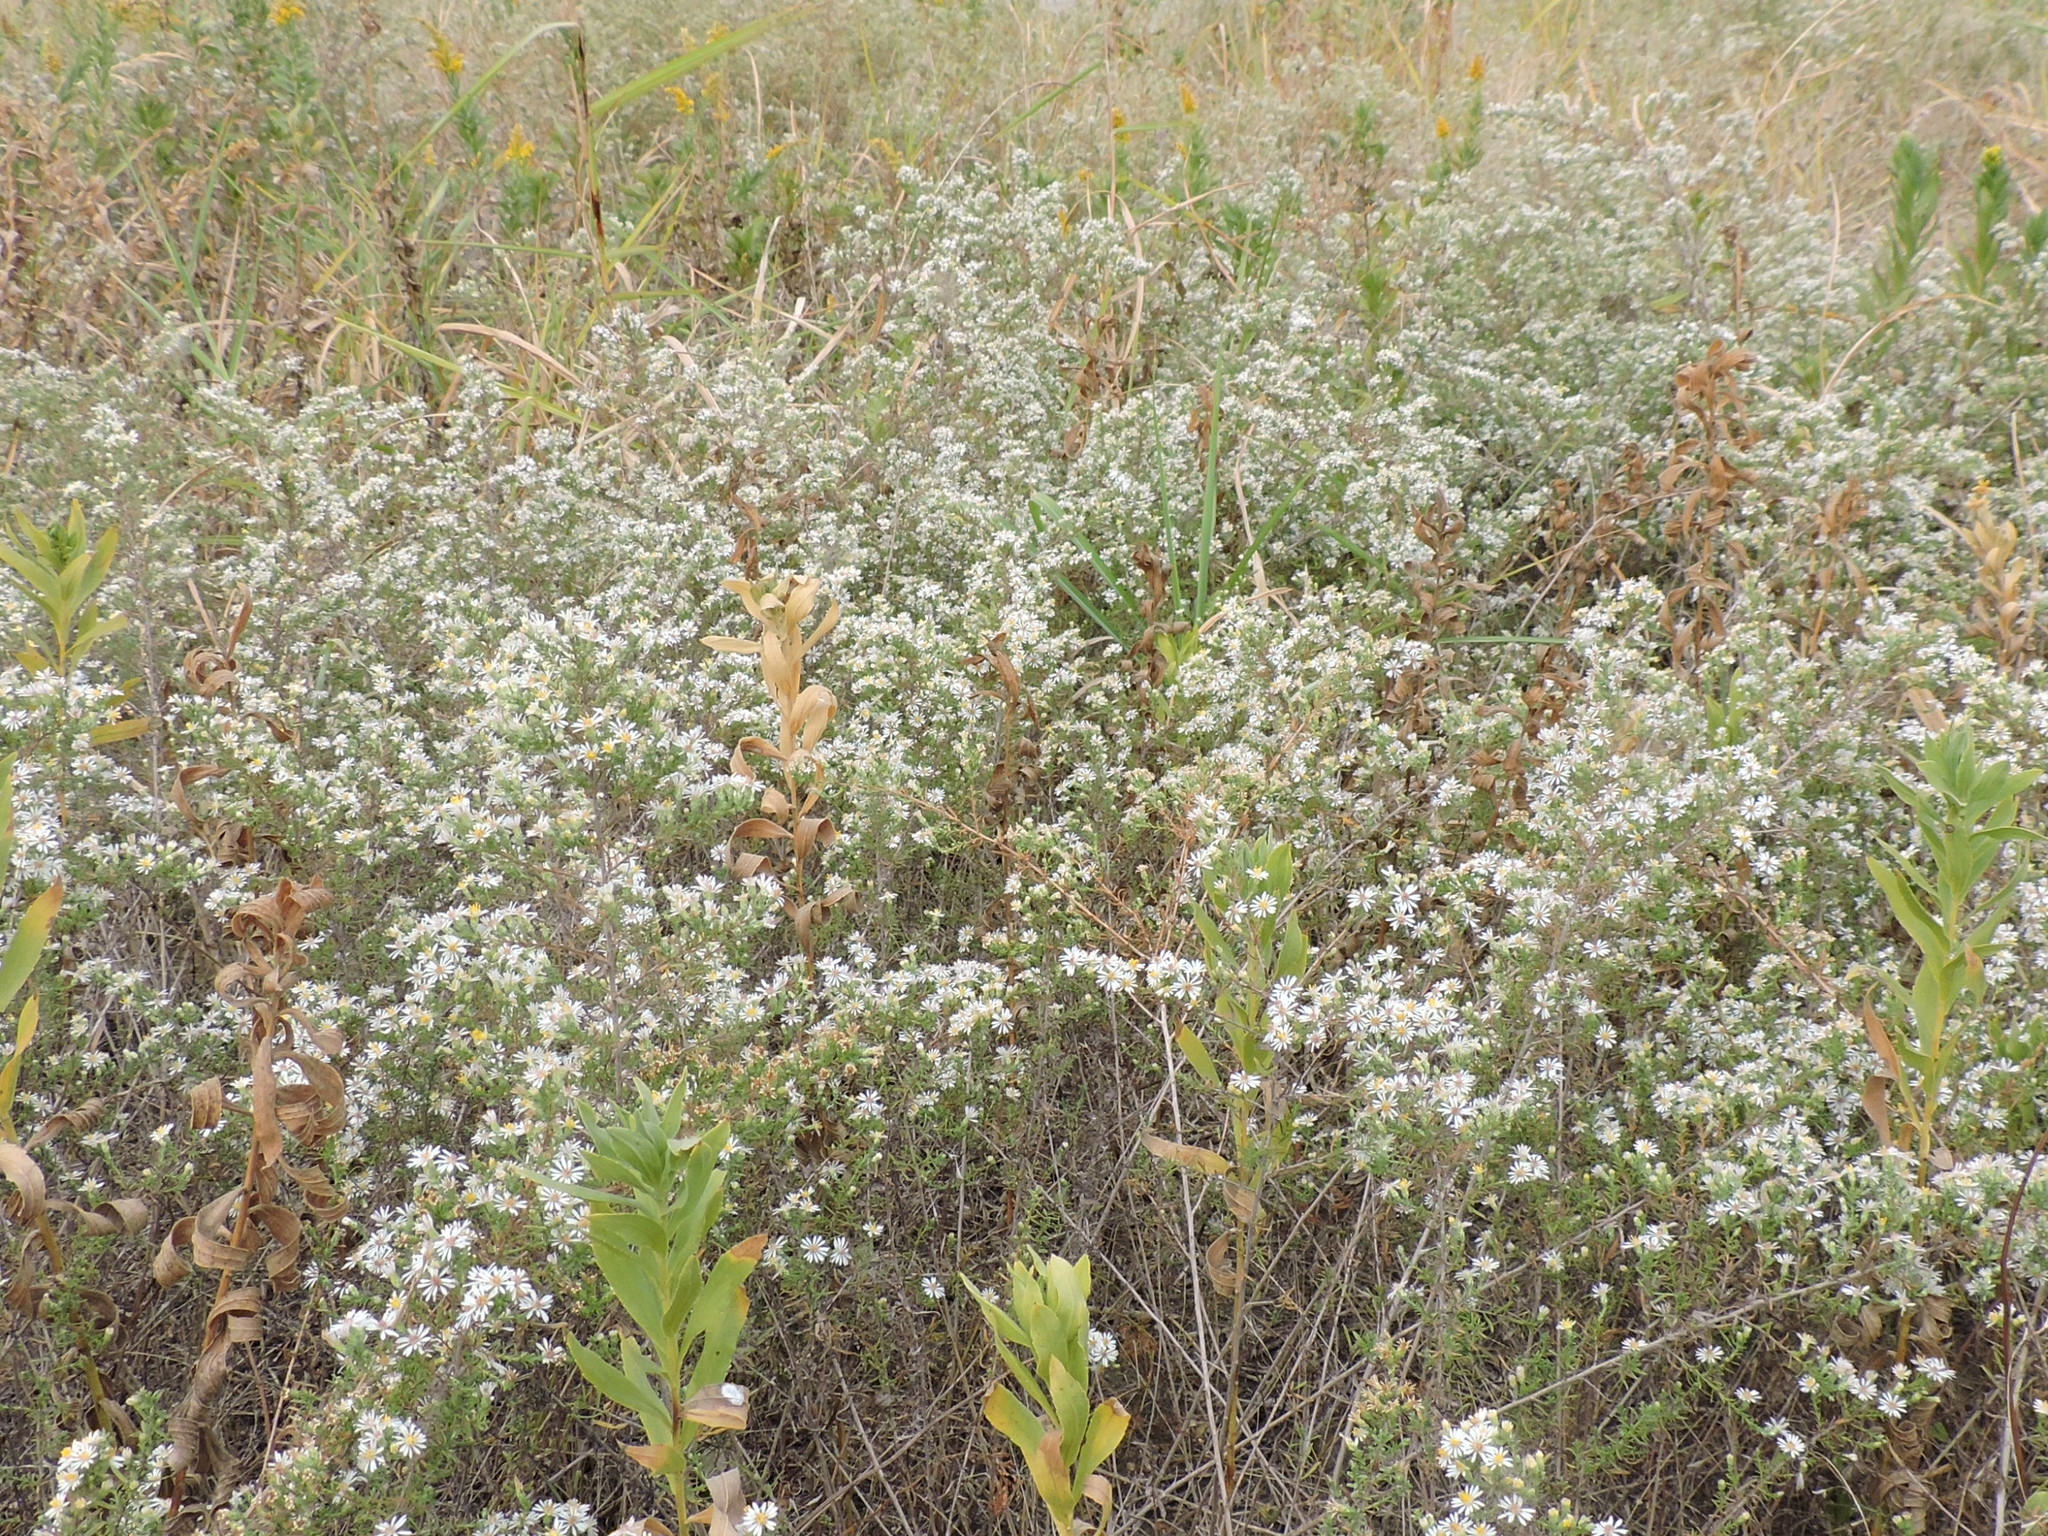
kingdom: Plantae
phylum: Tracheophyta
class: Magnoliopsida
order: Asterales
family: Asteraceae
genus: Symphyotrichum
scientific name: Symphyotrichum ericoides
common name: Heath aster
